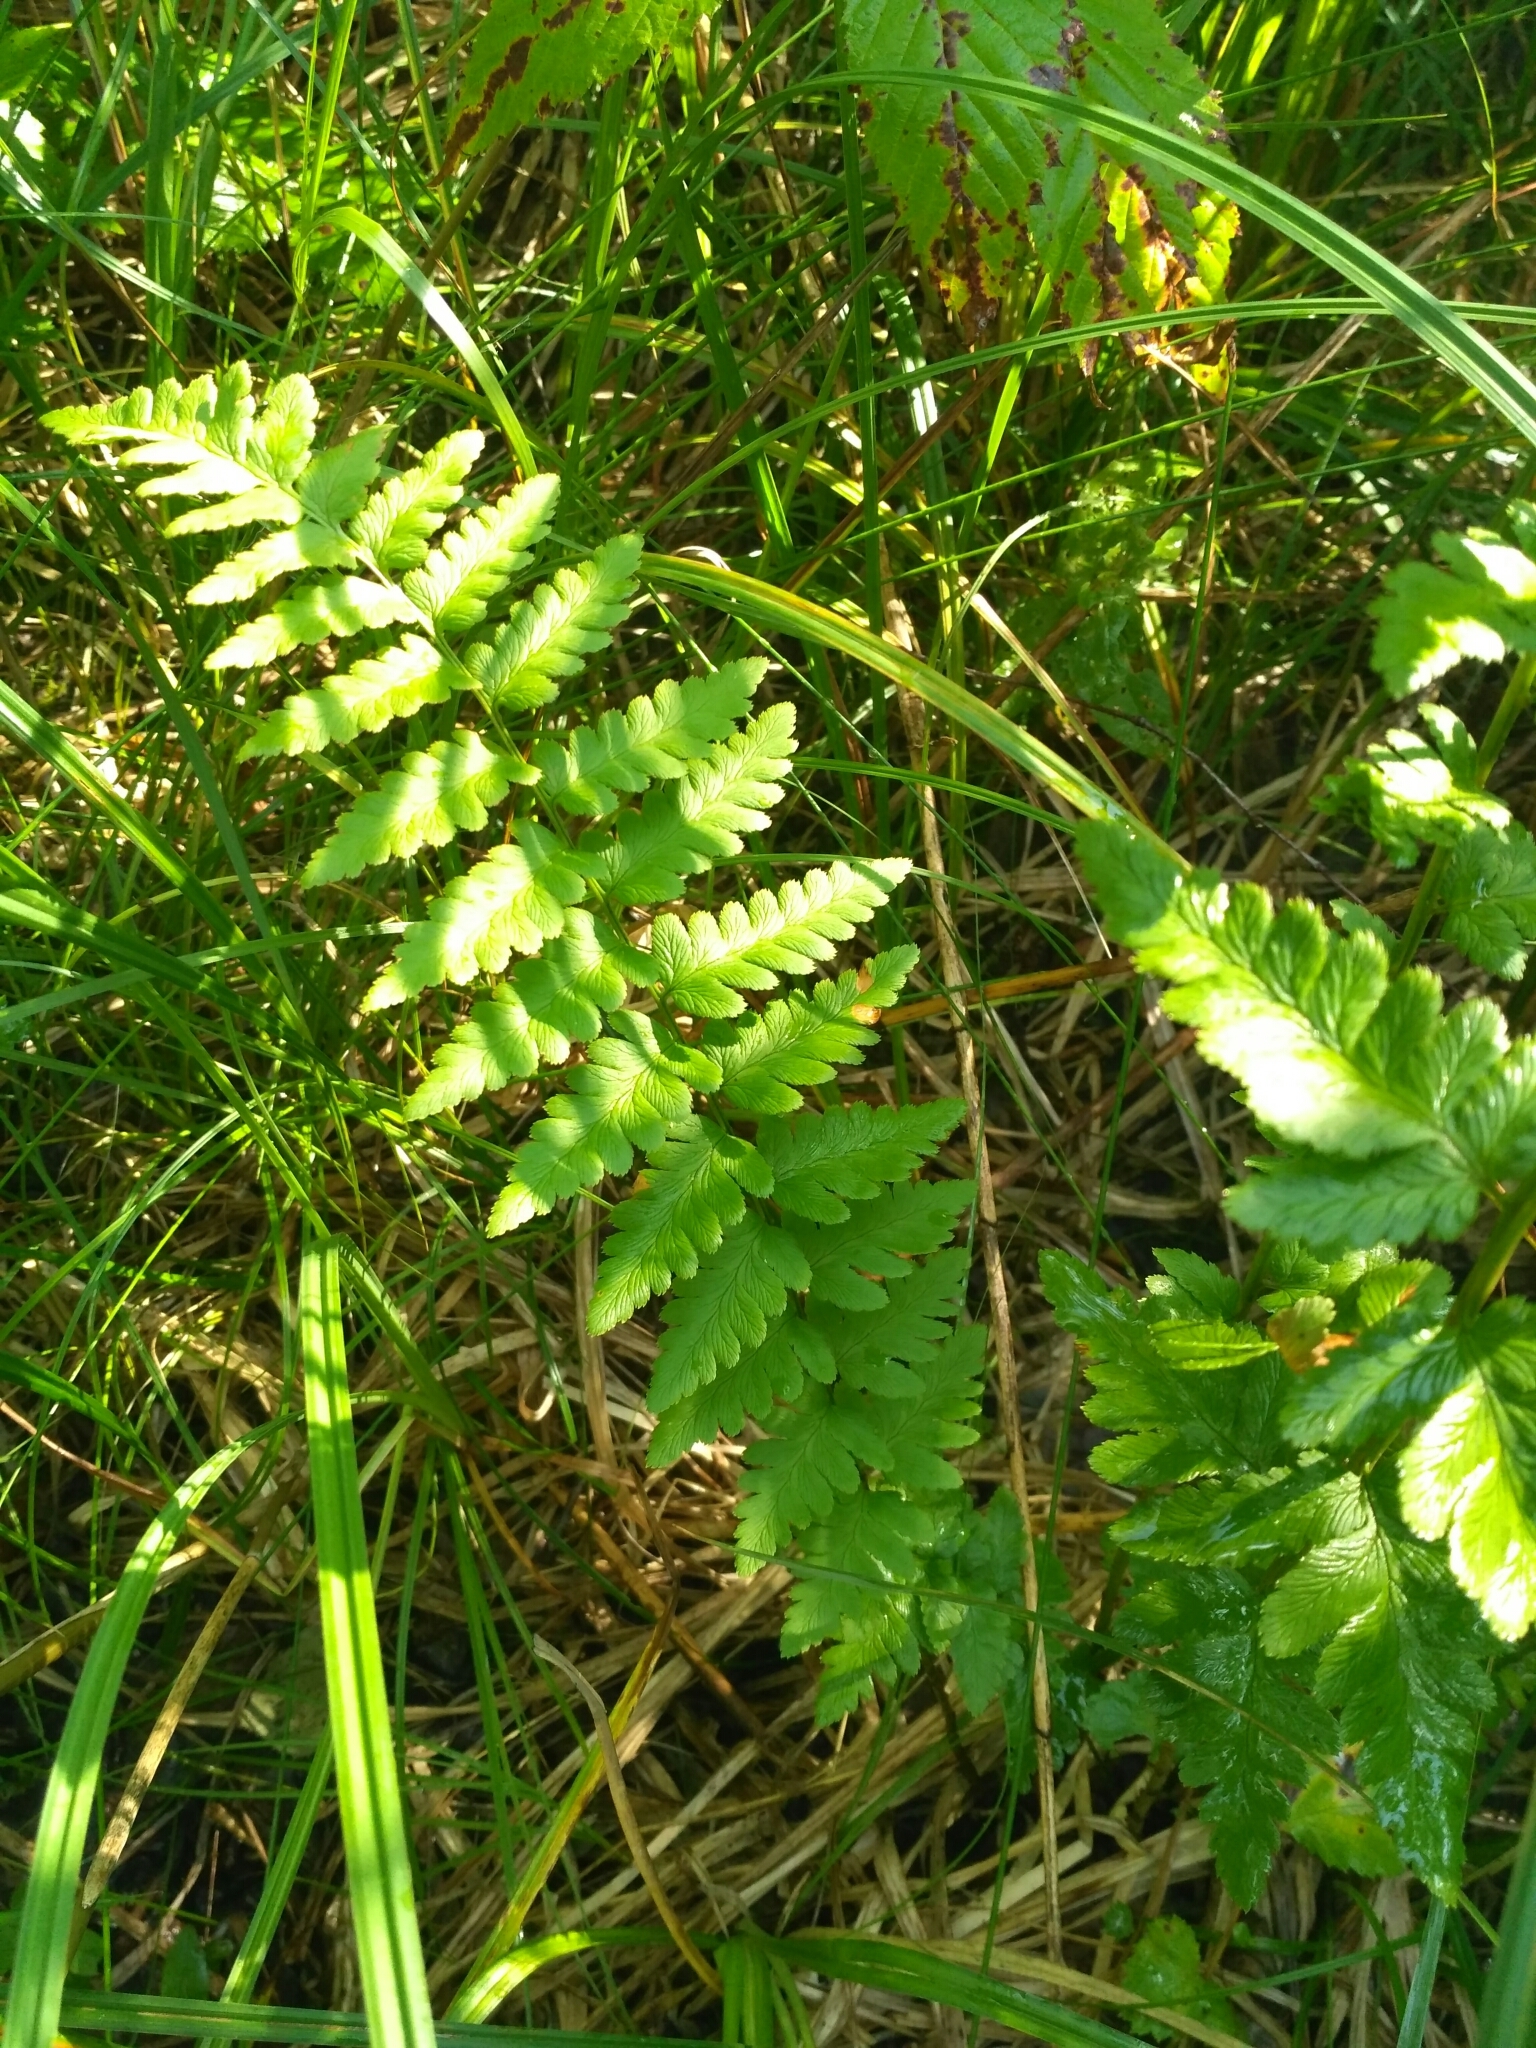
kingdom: Plantae
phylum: Tracheophyta
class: Polypodiopsida
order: Polypodiales
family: Dryopteridaceae
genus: Dryopteris
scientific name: Dryopteris cristata
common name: Crested wood fern
